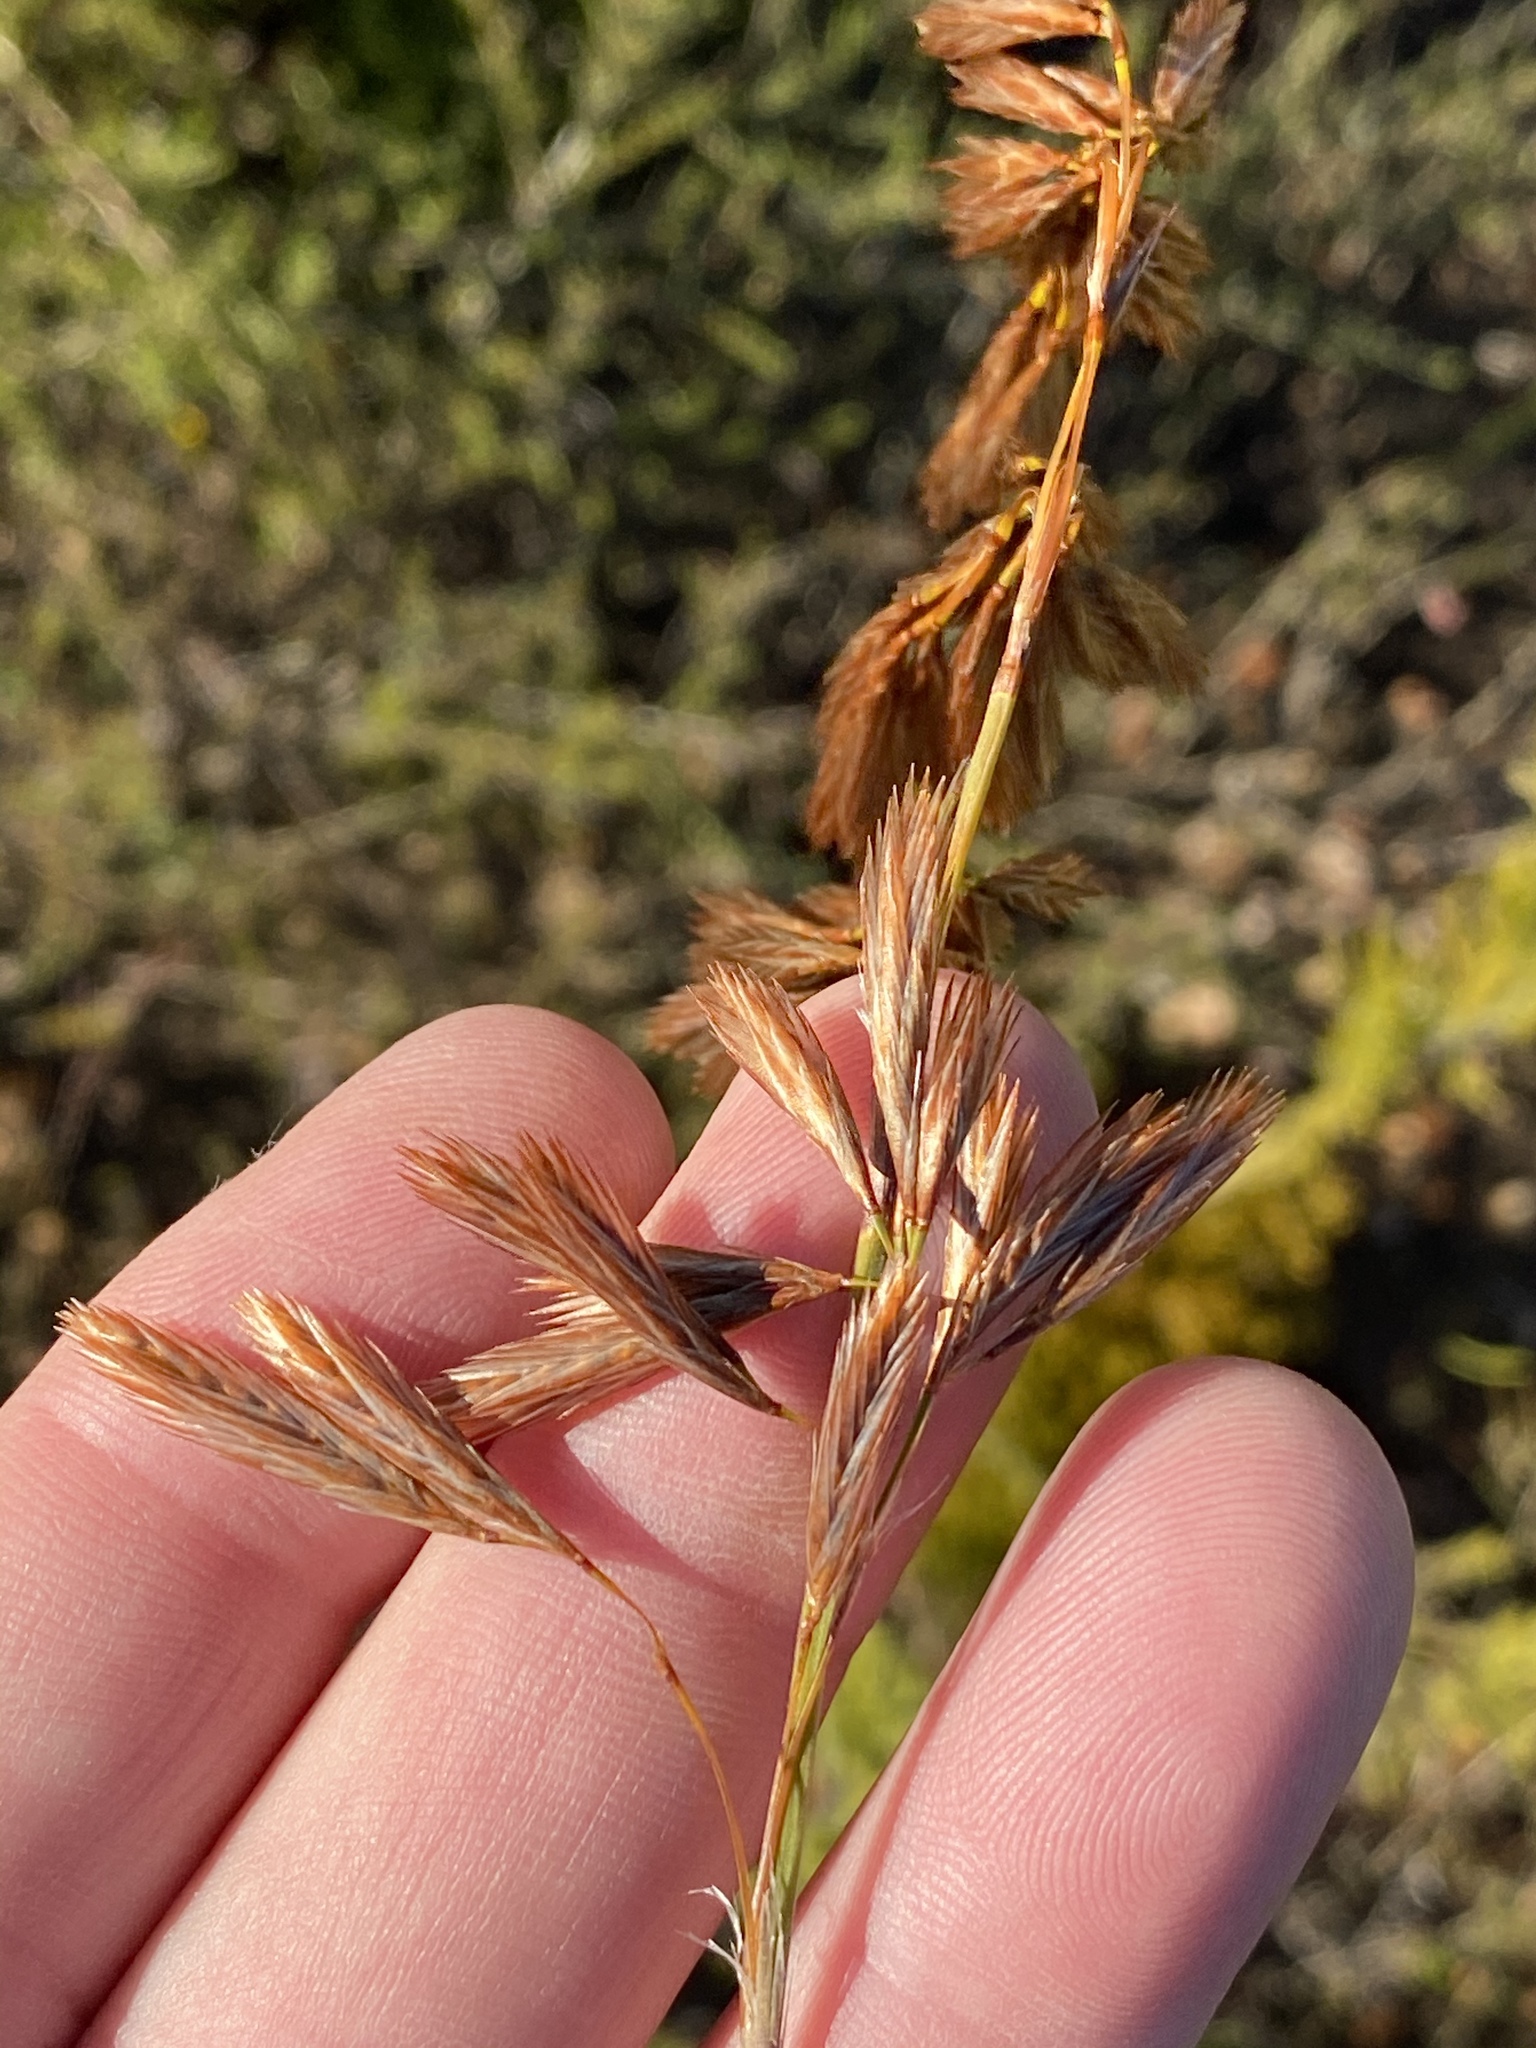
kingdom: Plantae
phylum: Tracheophyta
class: Liliopsida
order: Poales
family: Restionaceae
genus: Thamnochortus
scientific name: Thamnochortus cinereus
